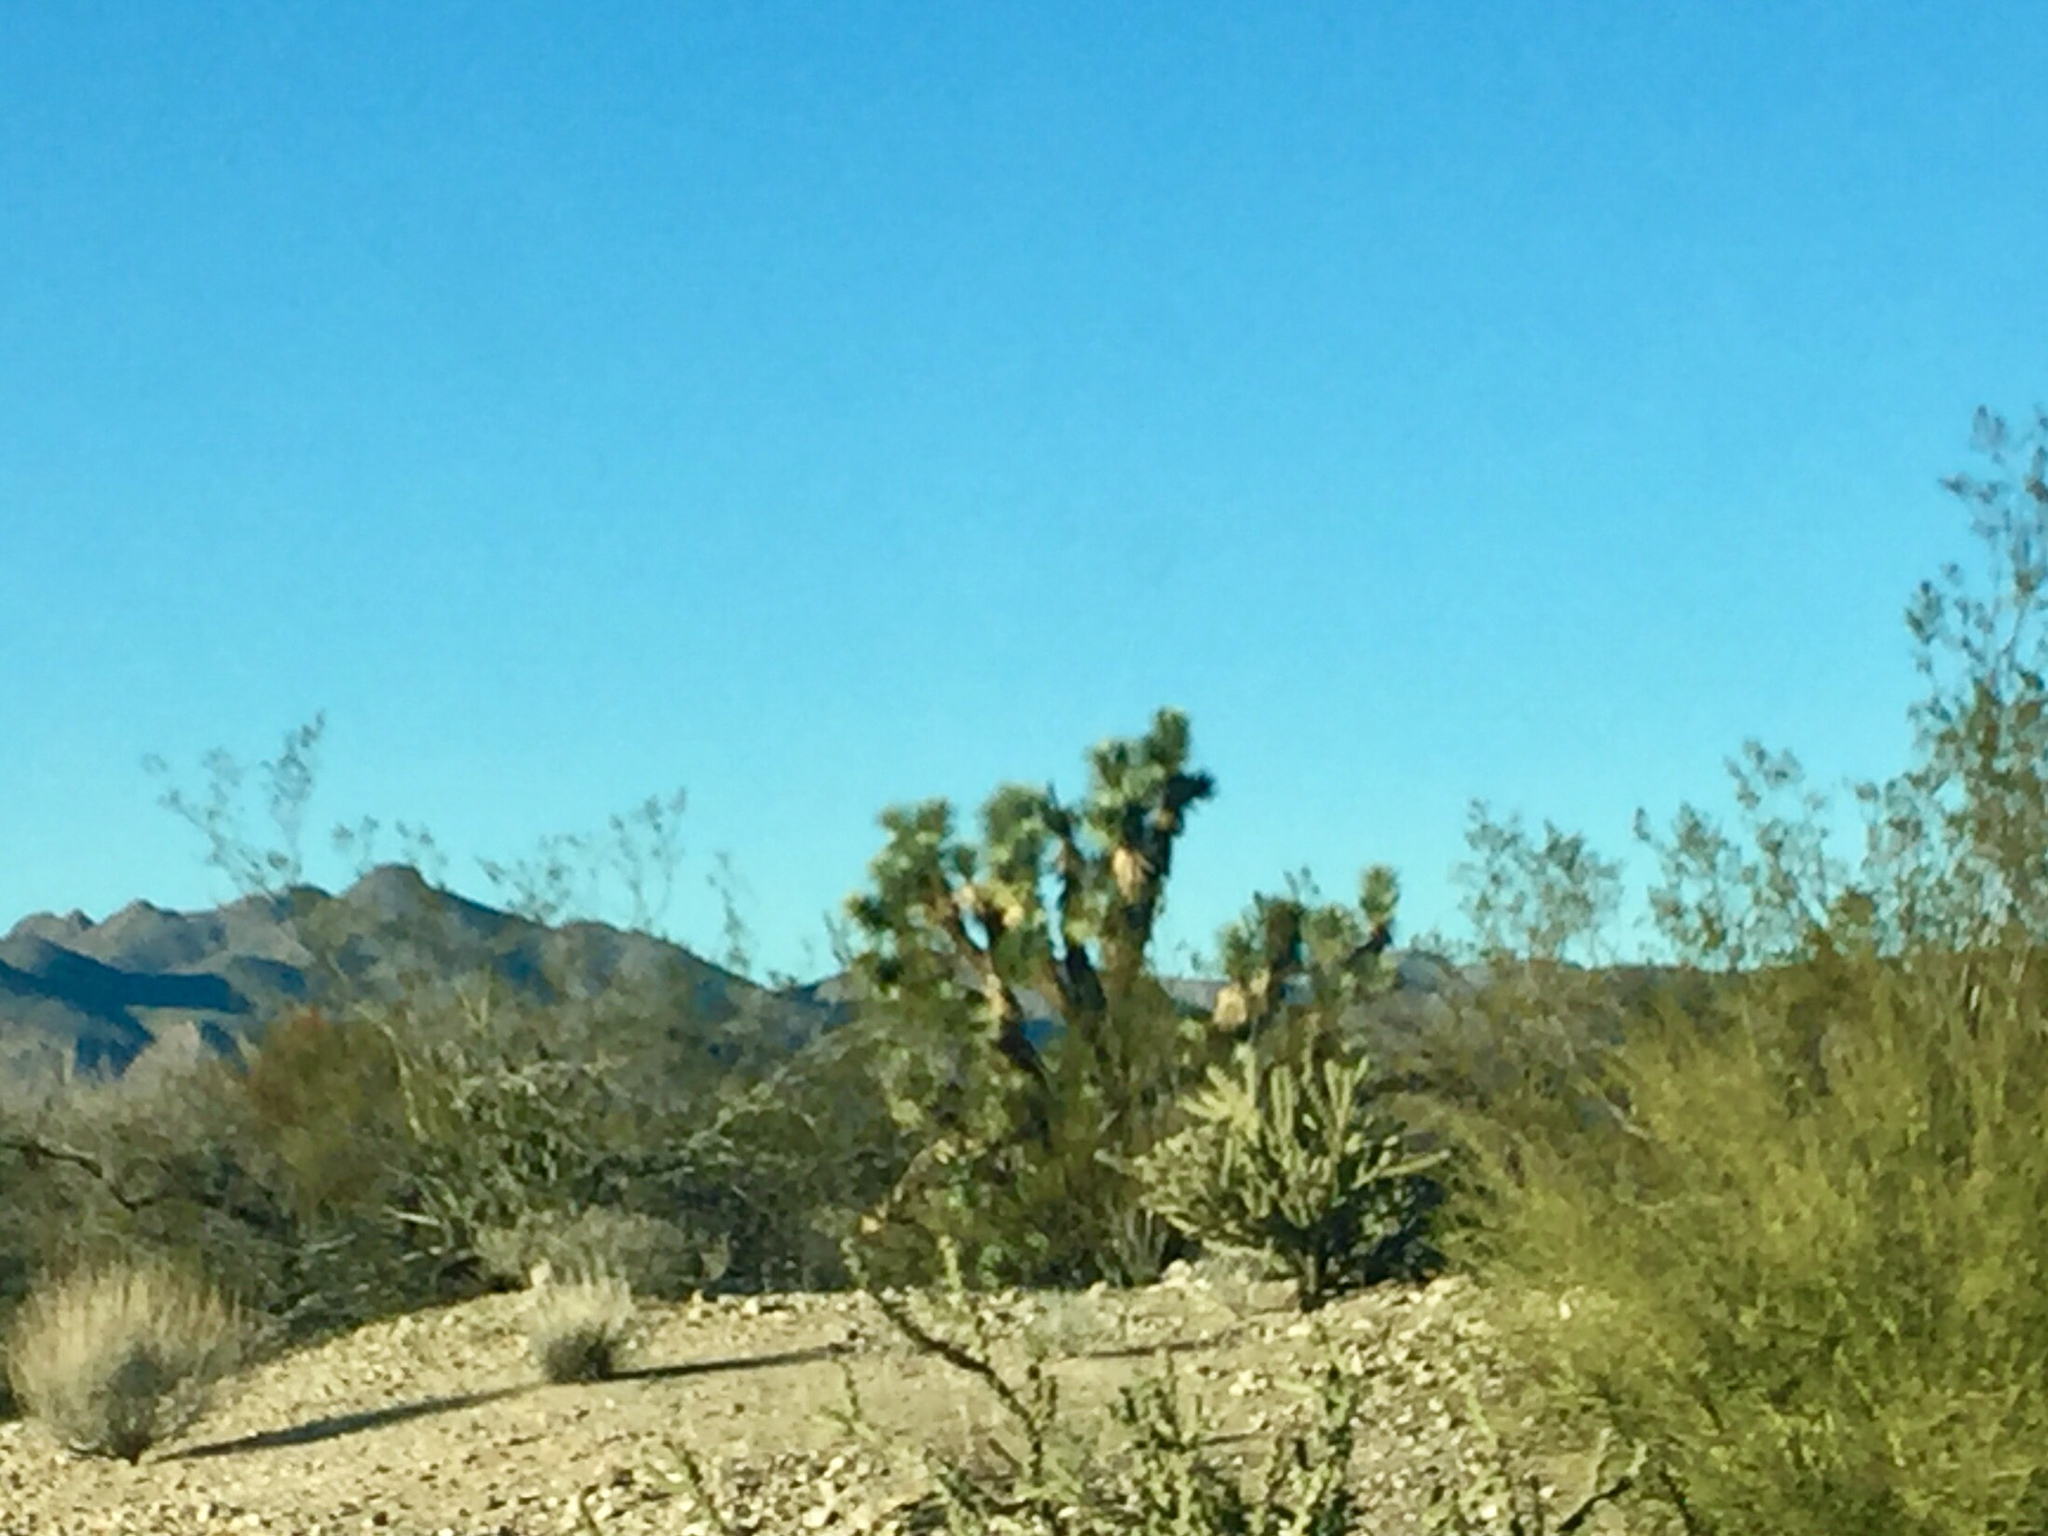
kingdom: Plantae
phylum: Tracheophyta
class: Liliopsida
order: Asparagales
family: Asparagaceae
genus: Yucca
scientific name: Yucca brevifolia
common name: Joshua tree
